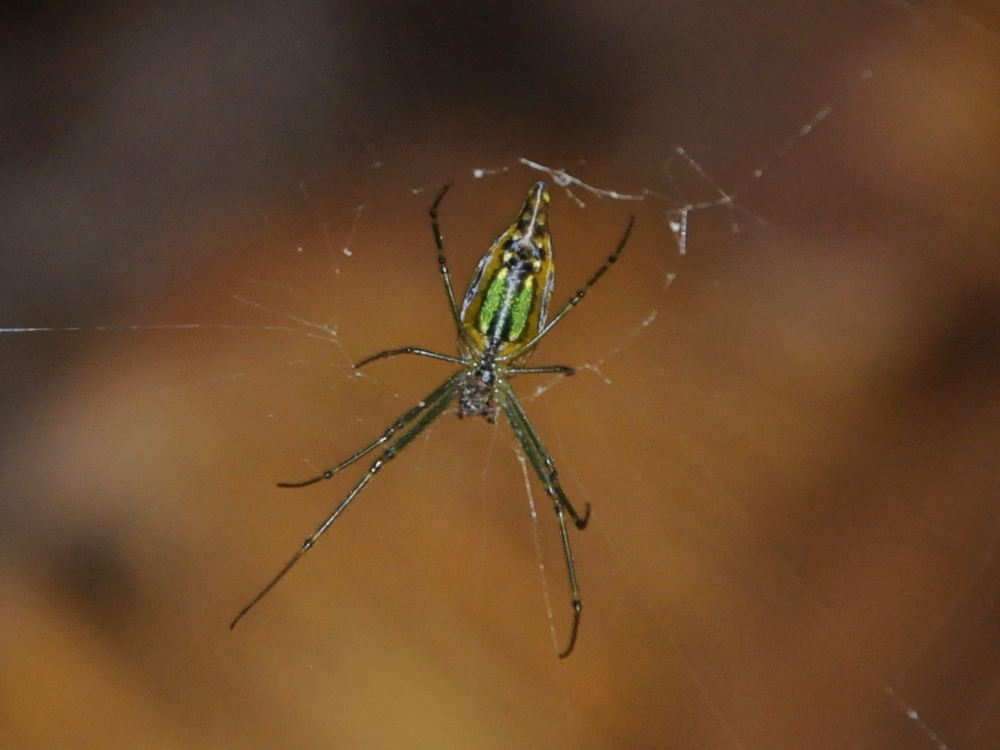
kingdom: Animalia
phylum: Arthropoda
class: Arachnida
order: Araneae
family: Tetragnathidae
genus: Leucauge
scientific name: Leucauge decorata
